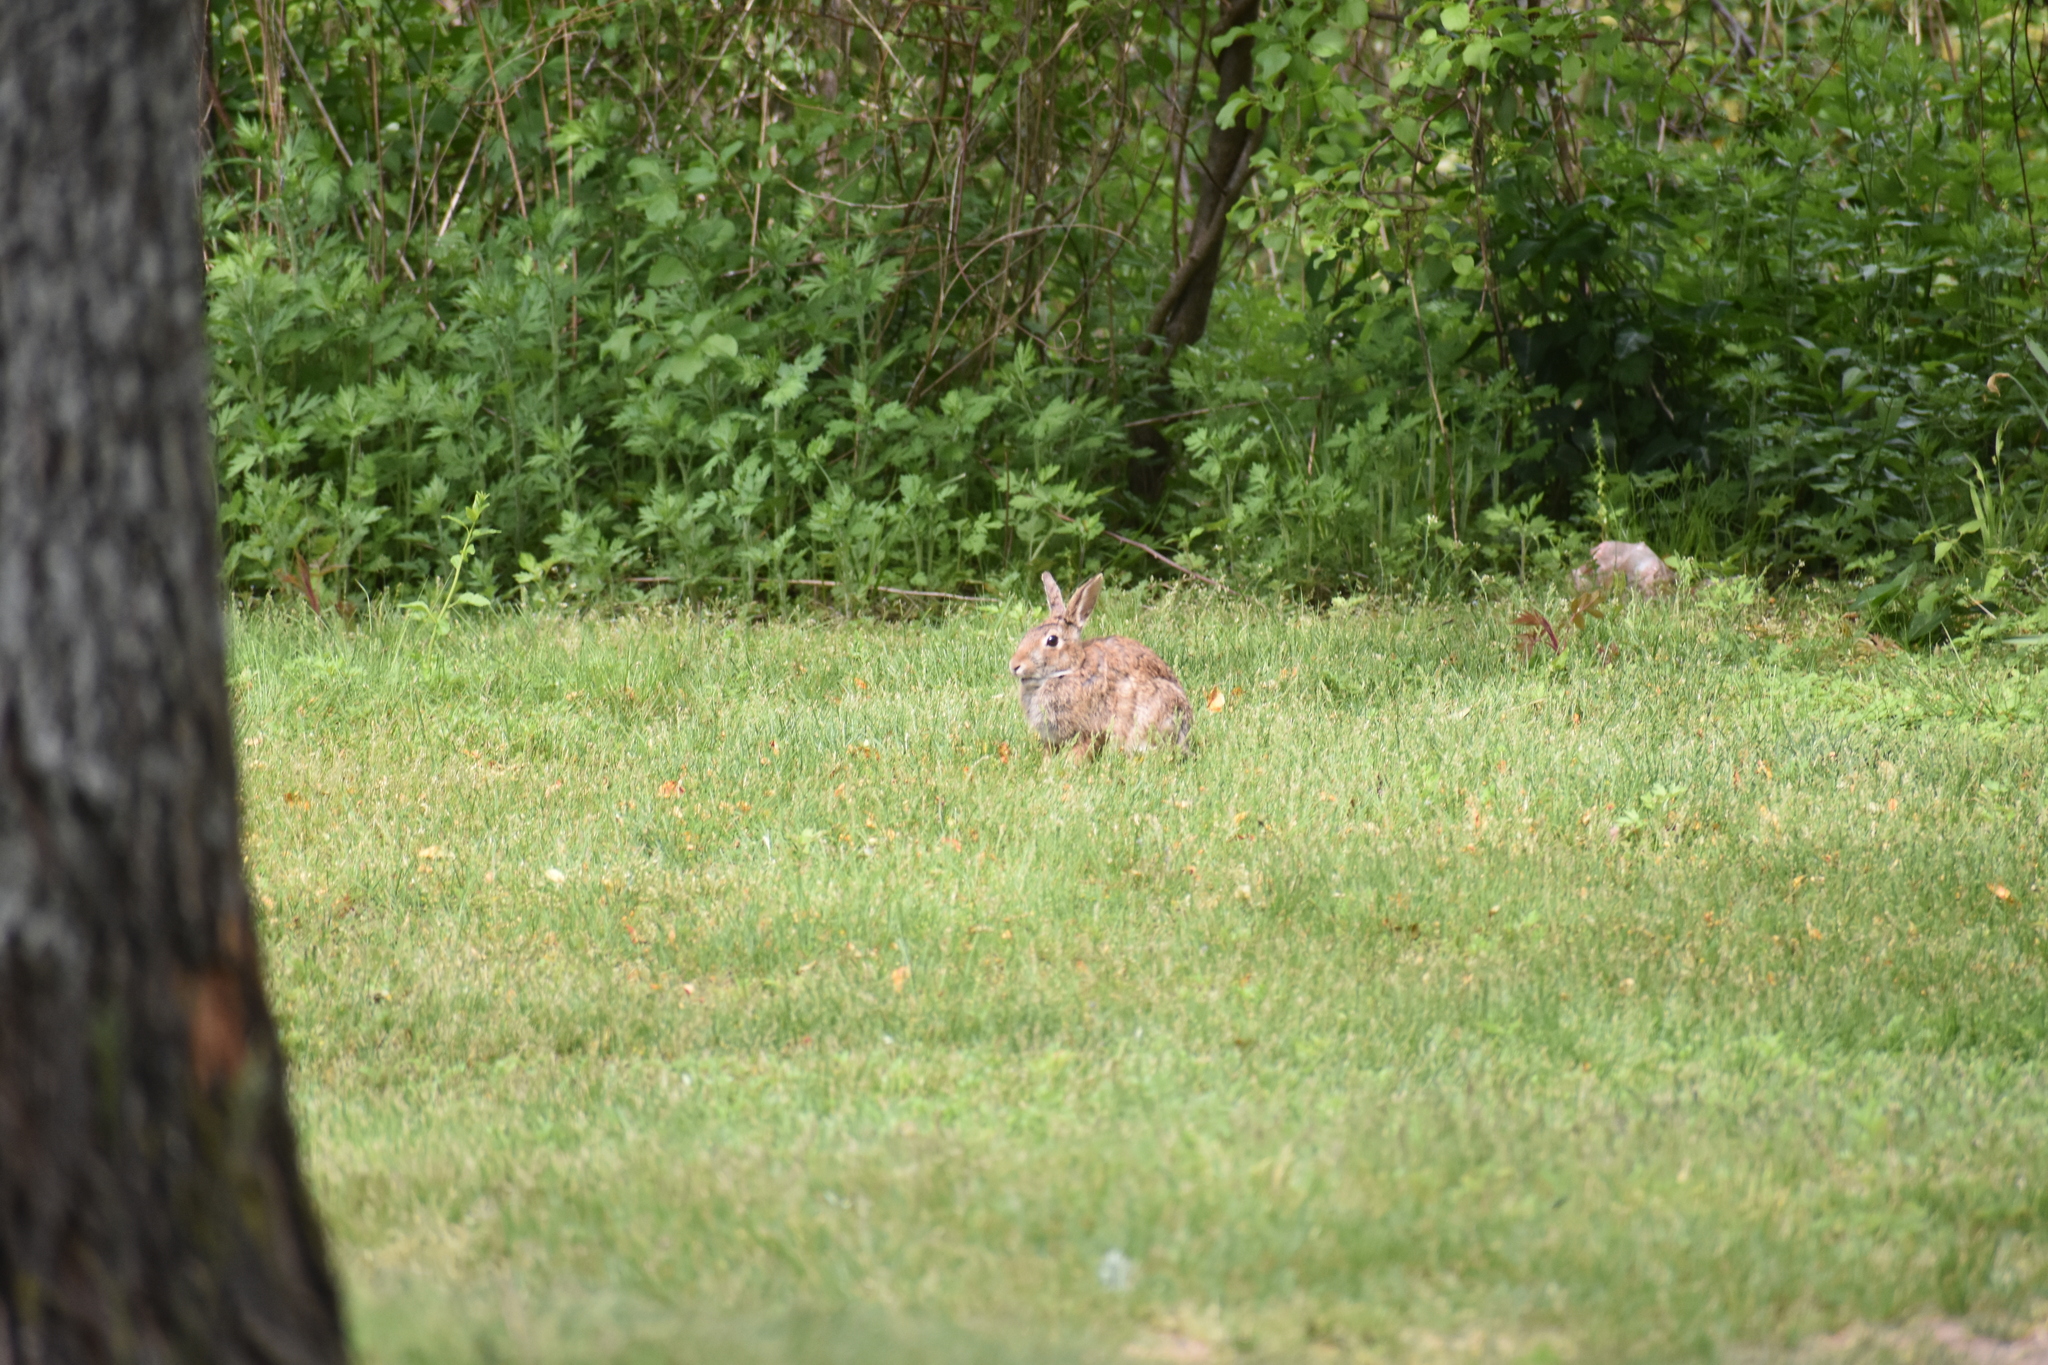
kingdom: Animalia
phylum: Chordata
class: Mammalia
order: Lagomorpha
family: Leporidae
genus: Sylvilagus
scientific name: Sylvilagus floridanus
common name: Eastern cottontail
